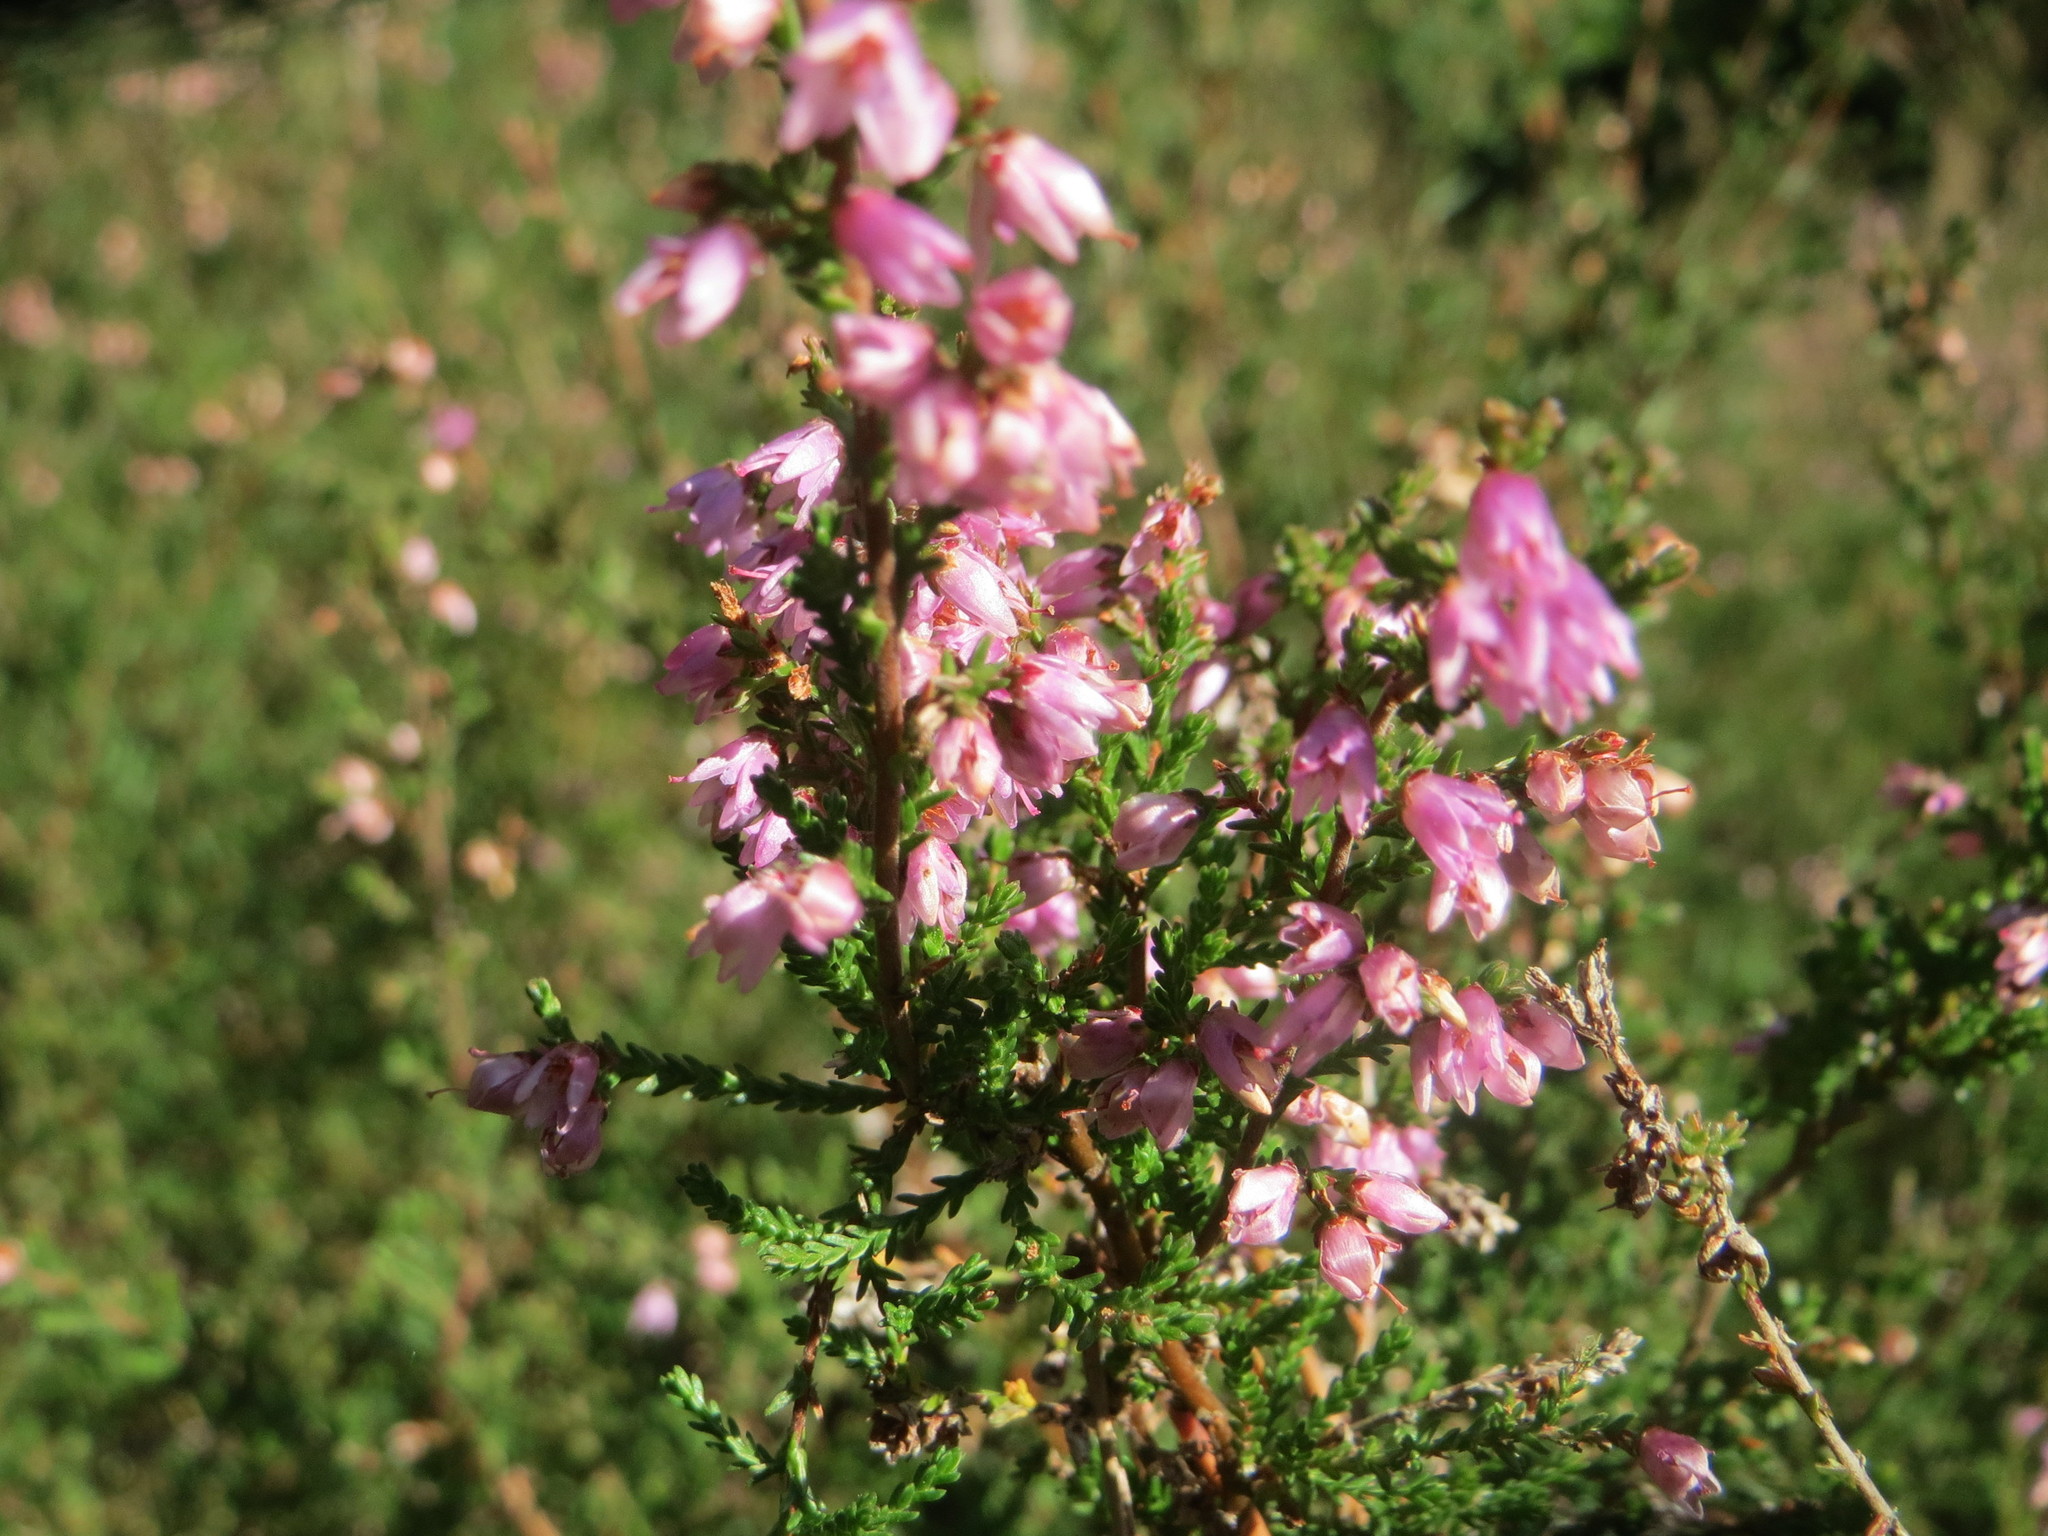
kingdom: Plantae
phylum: Tracheophyta
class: Magnoliopsida
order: Ericales
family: Ericaceae
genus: Calluna
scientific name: Calluna vulgaris
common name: Heather
